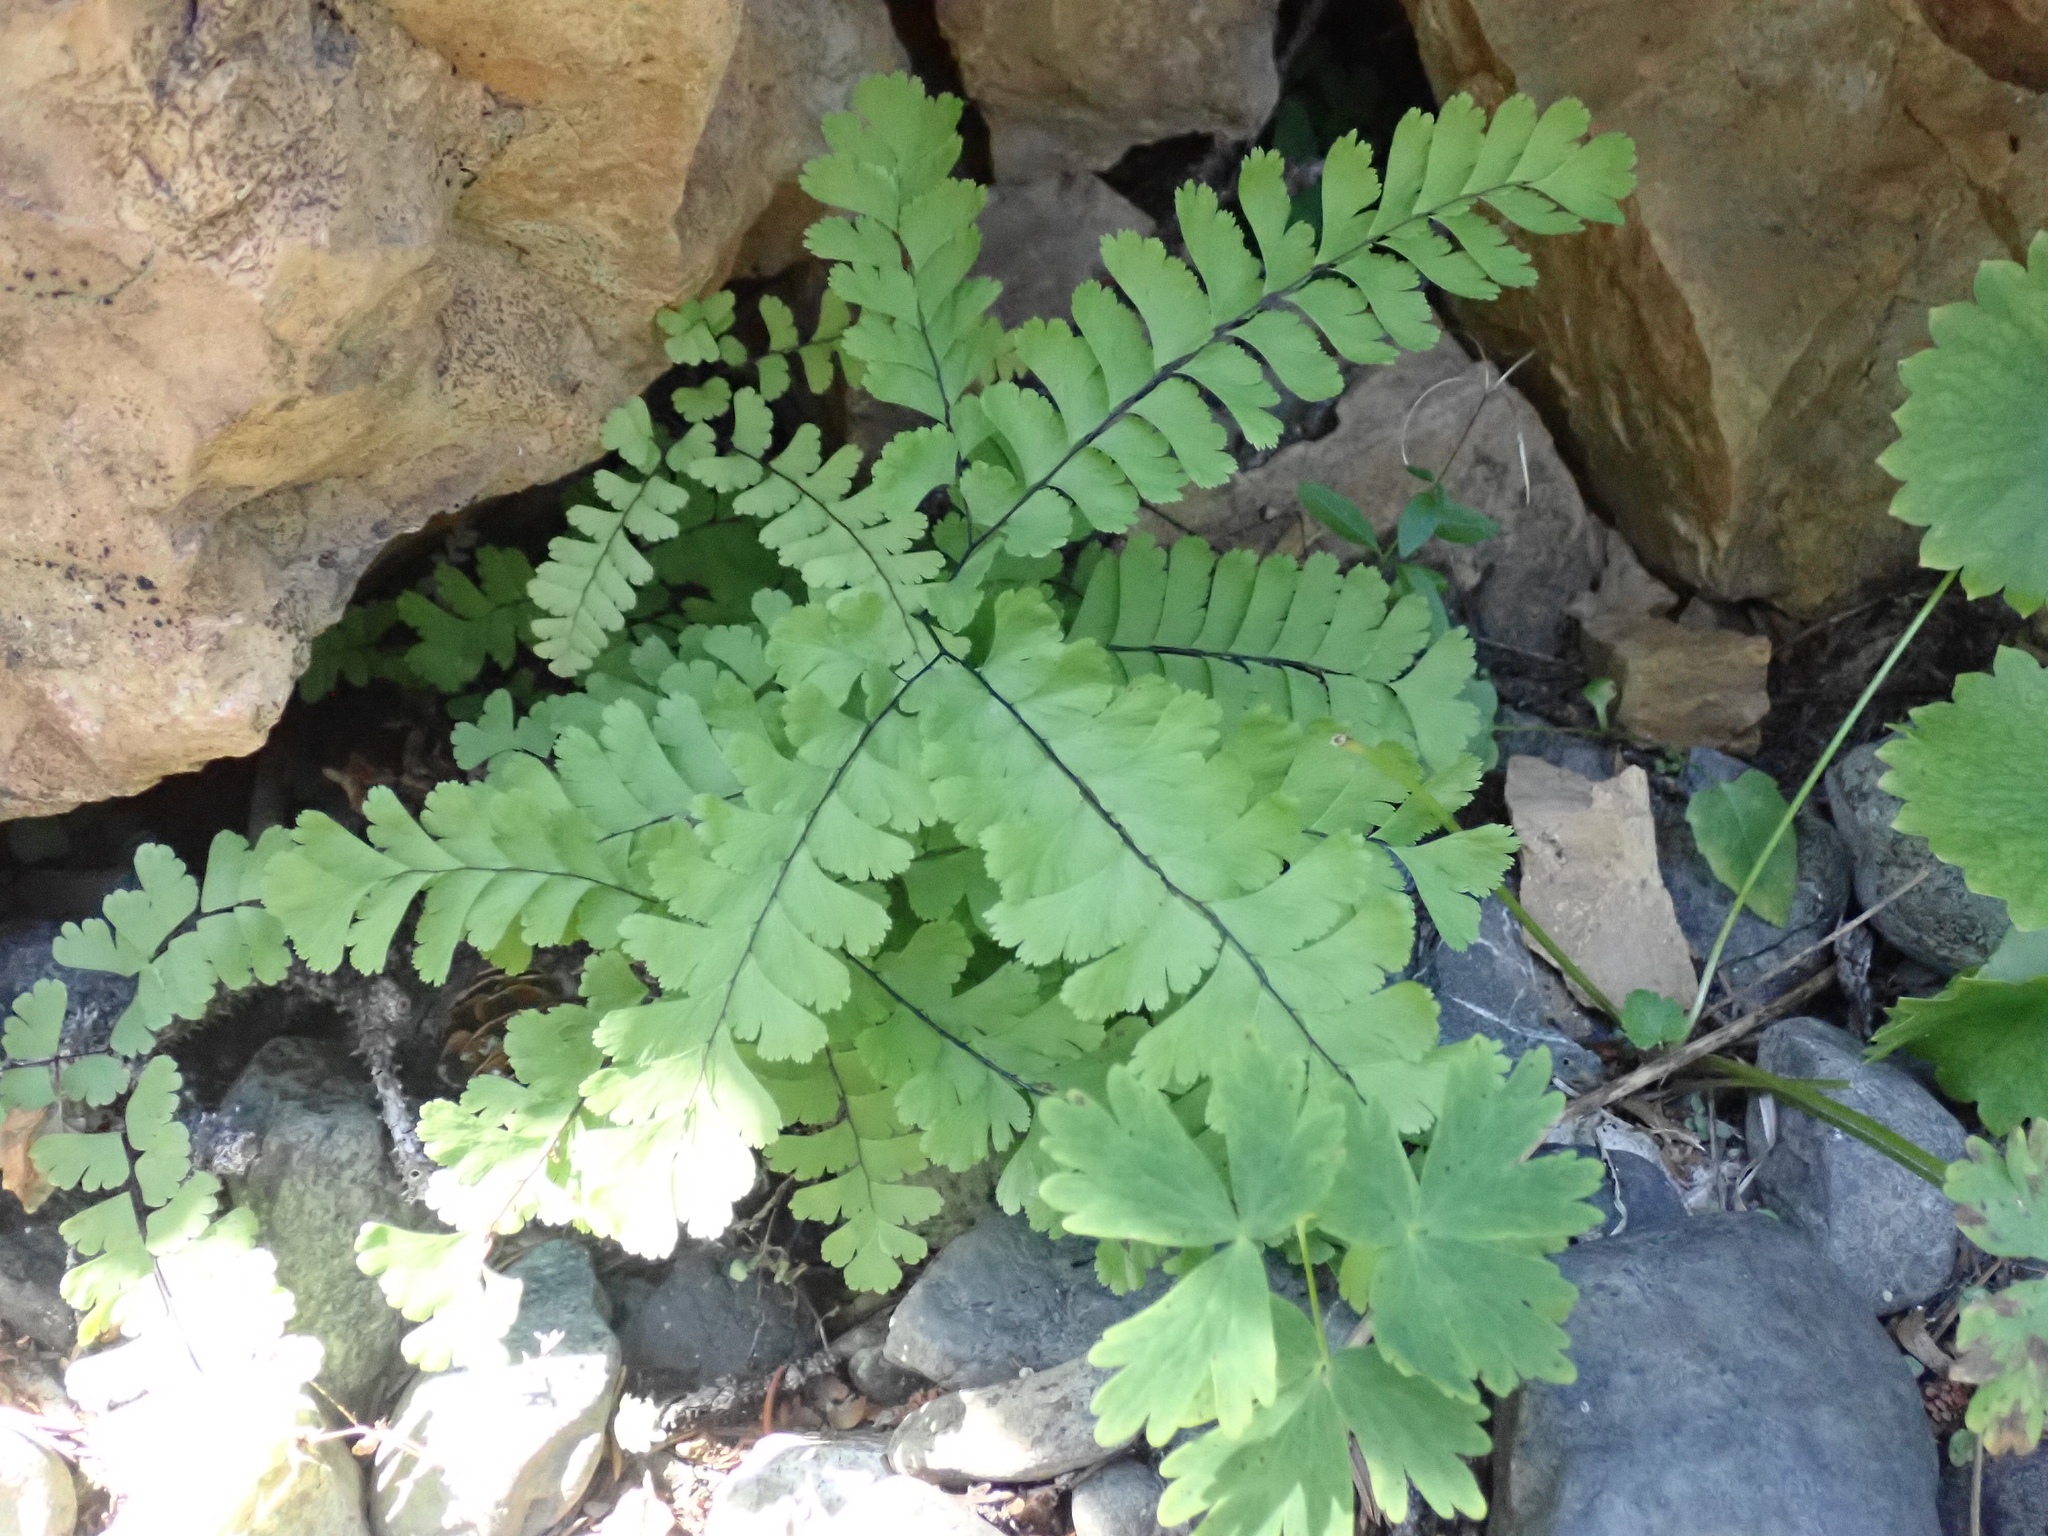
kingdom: Plantae
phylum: Tracheophyta
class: Polypodiopsida
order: Polypodiales
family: Pteridaceae
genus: Adiantum
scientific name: Adiantum aleuticum
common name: Aleutian maidenhair fern
